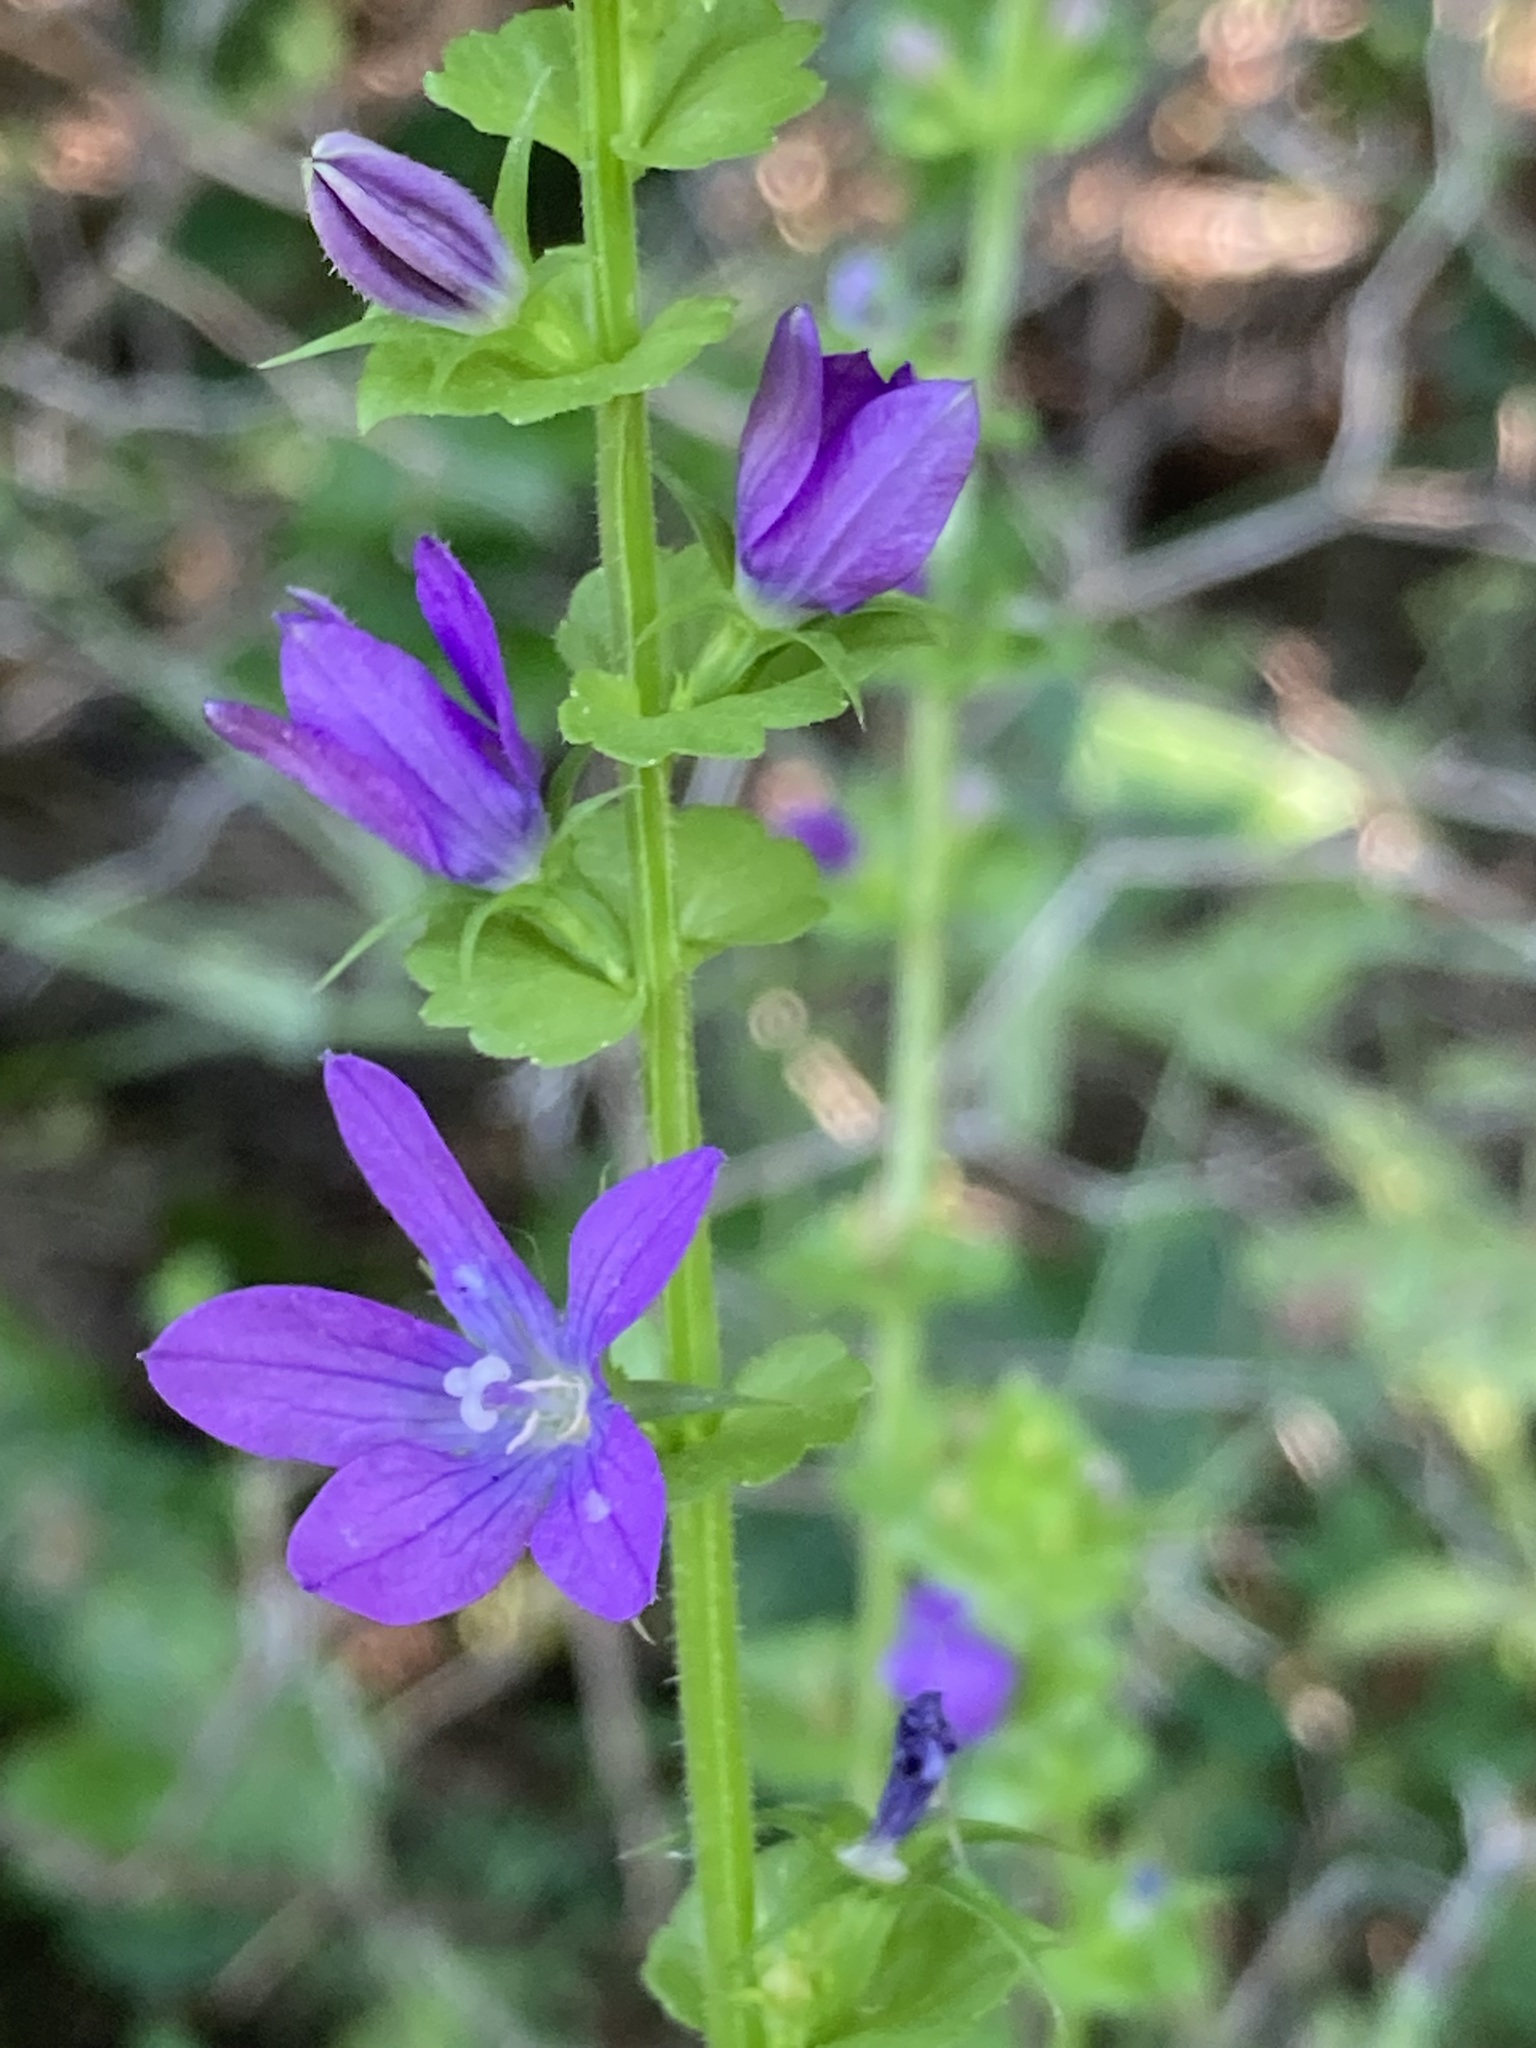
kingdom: Plantae
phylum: Tracheophyta
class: Magnoliopsida
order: Asterales
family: Campanulaceae
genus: Triodanis
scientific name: Triodanis perfoliata
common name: Clasping venus' looking-glass
